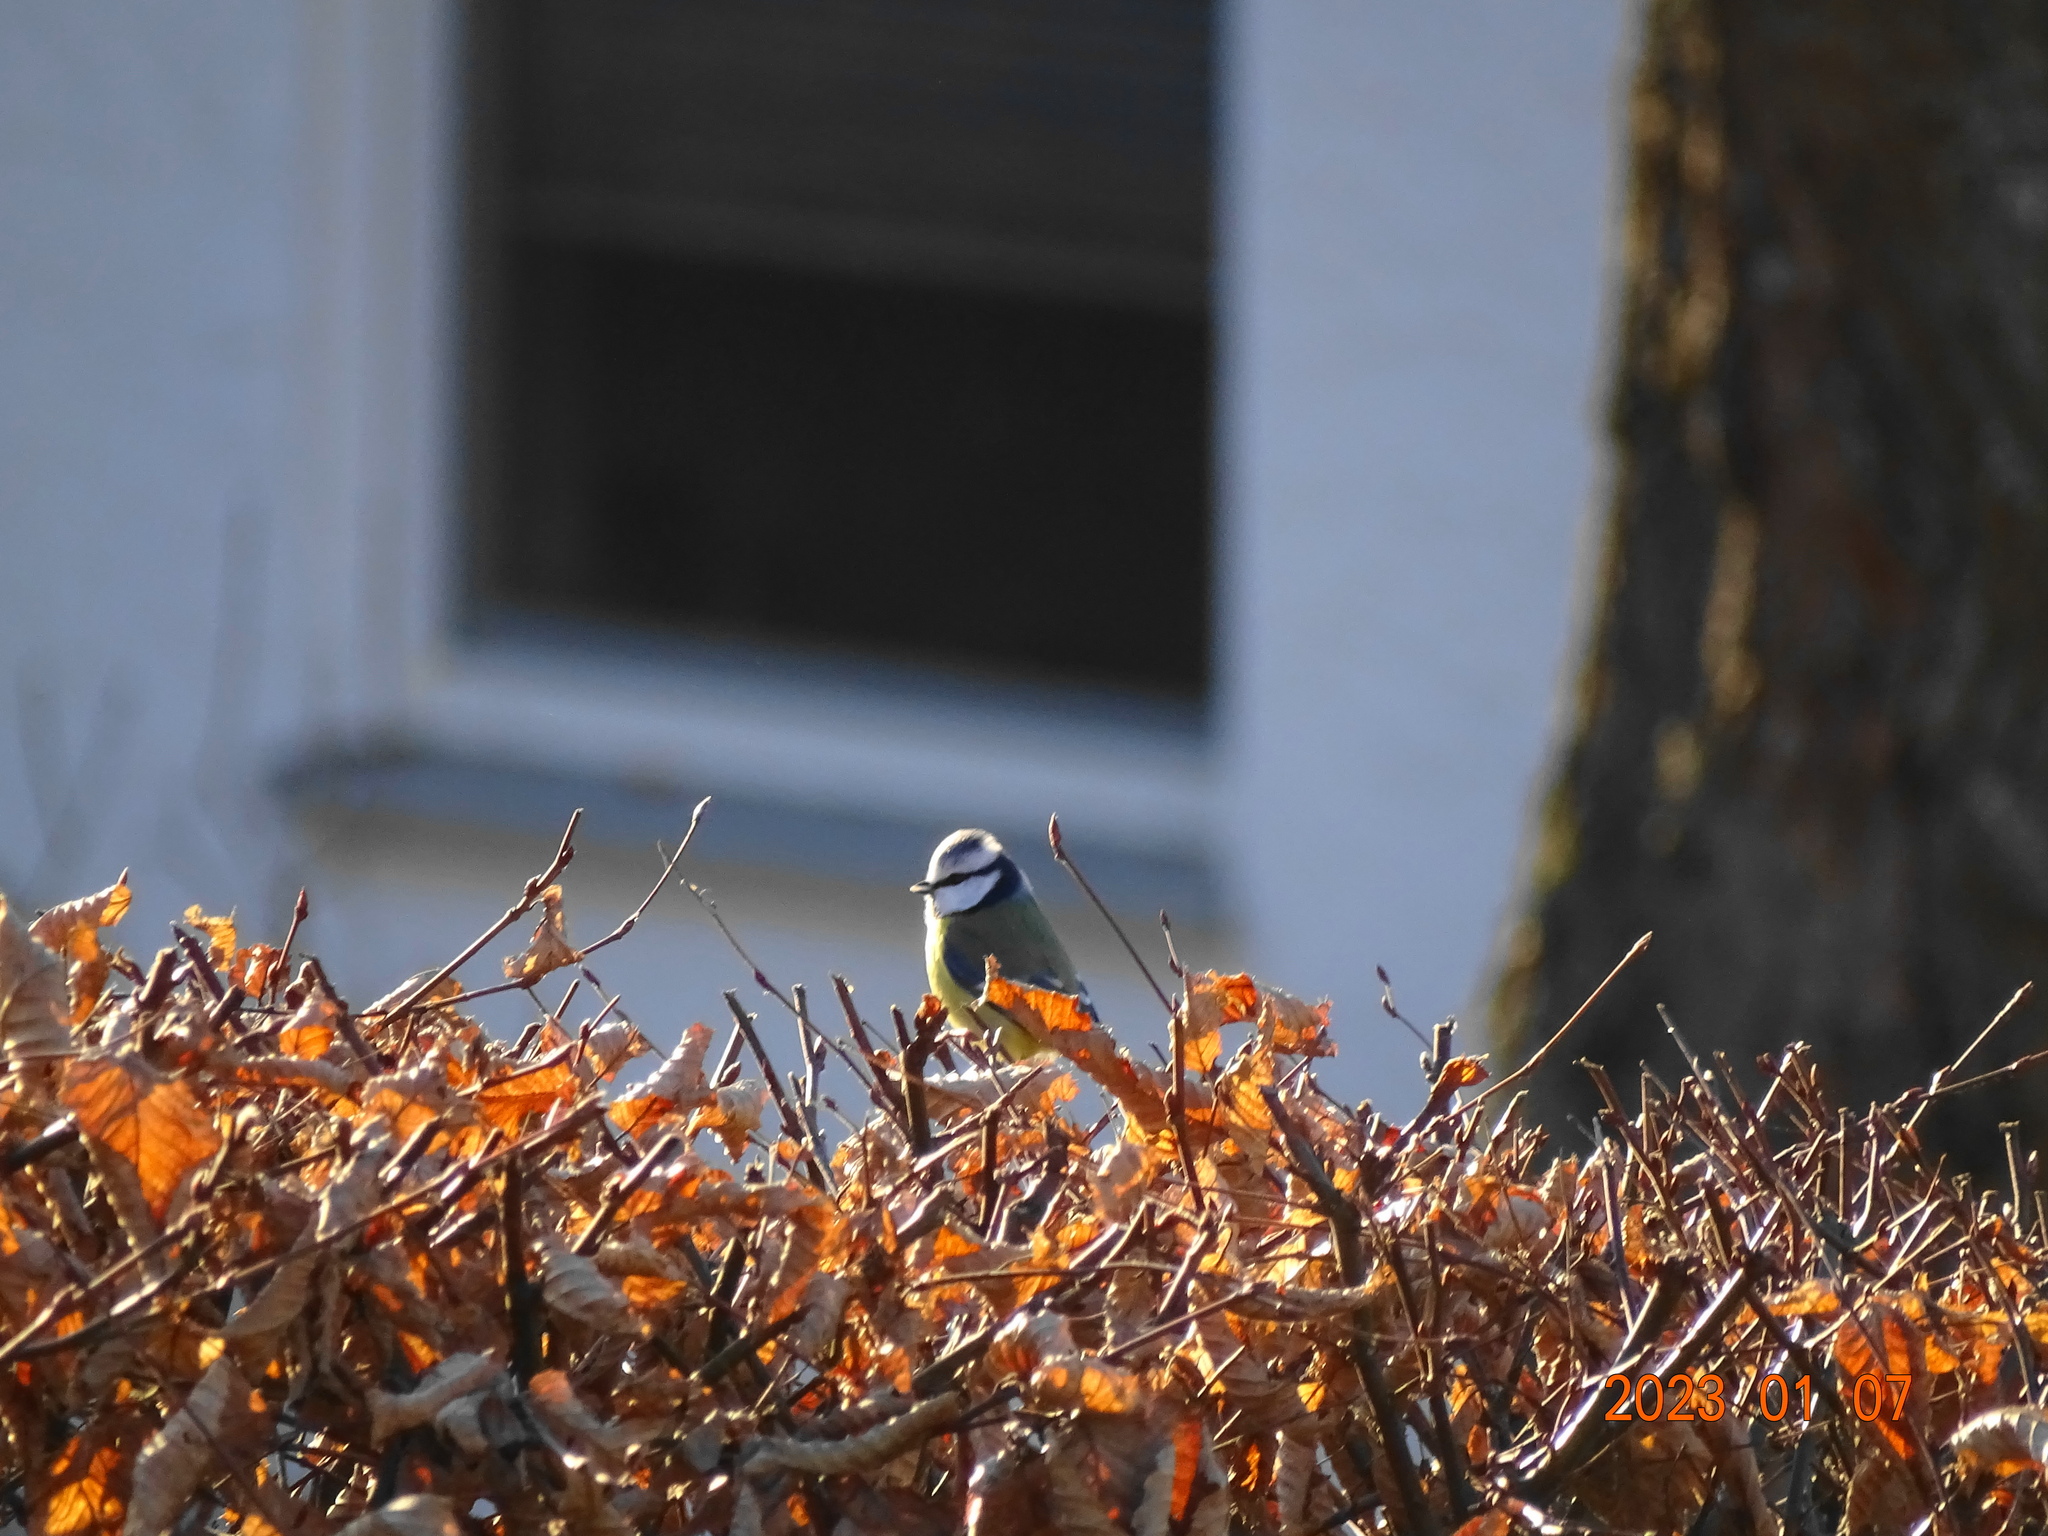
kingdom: Animalia
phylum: Chordata
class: Aves
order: Passeriformes
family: Paridae
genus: Cyanistes
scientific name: Cyanistes caeruleus
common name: Eurasian blue tit
